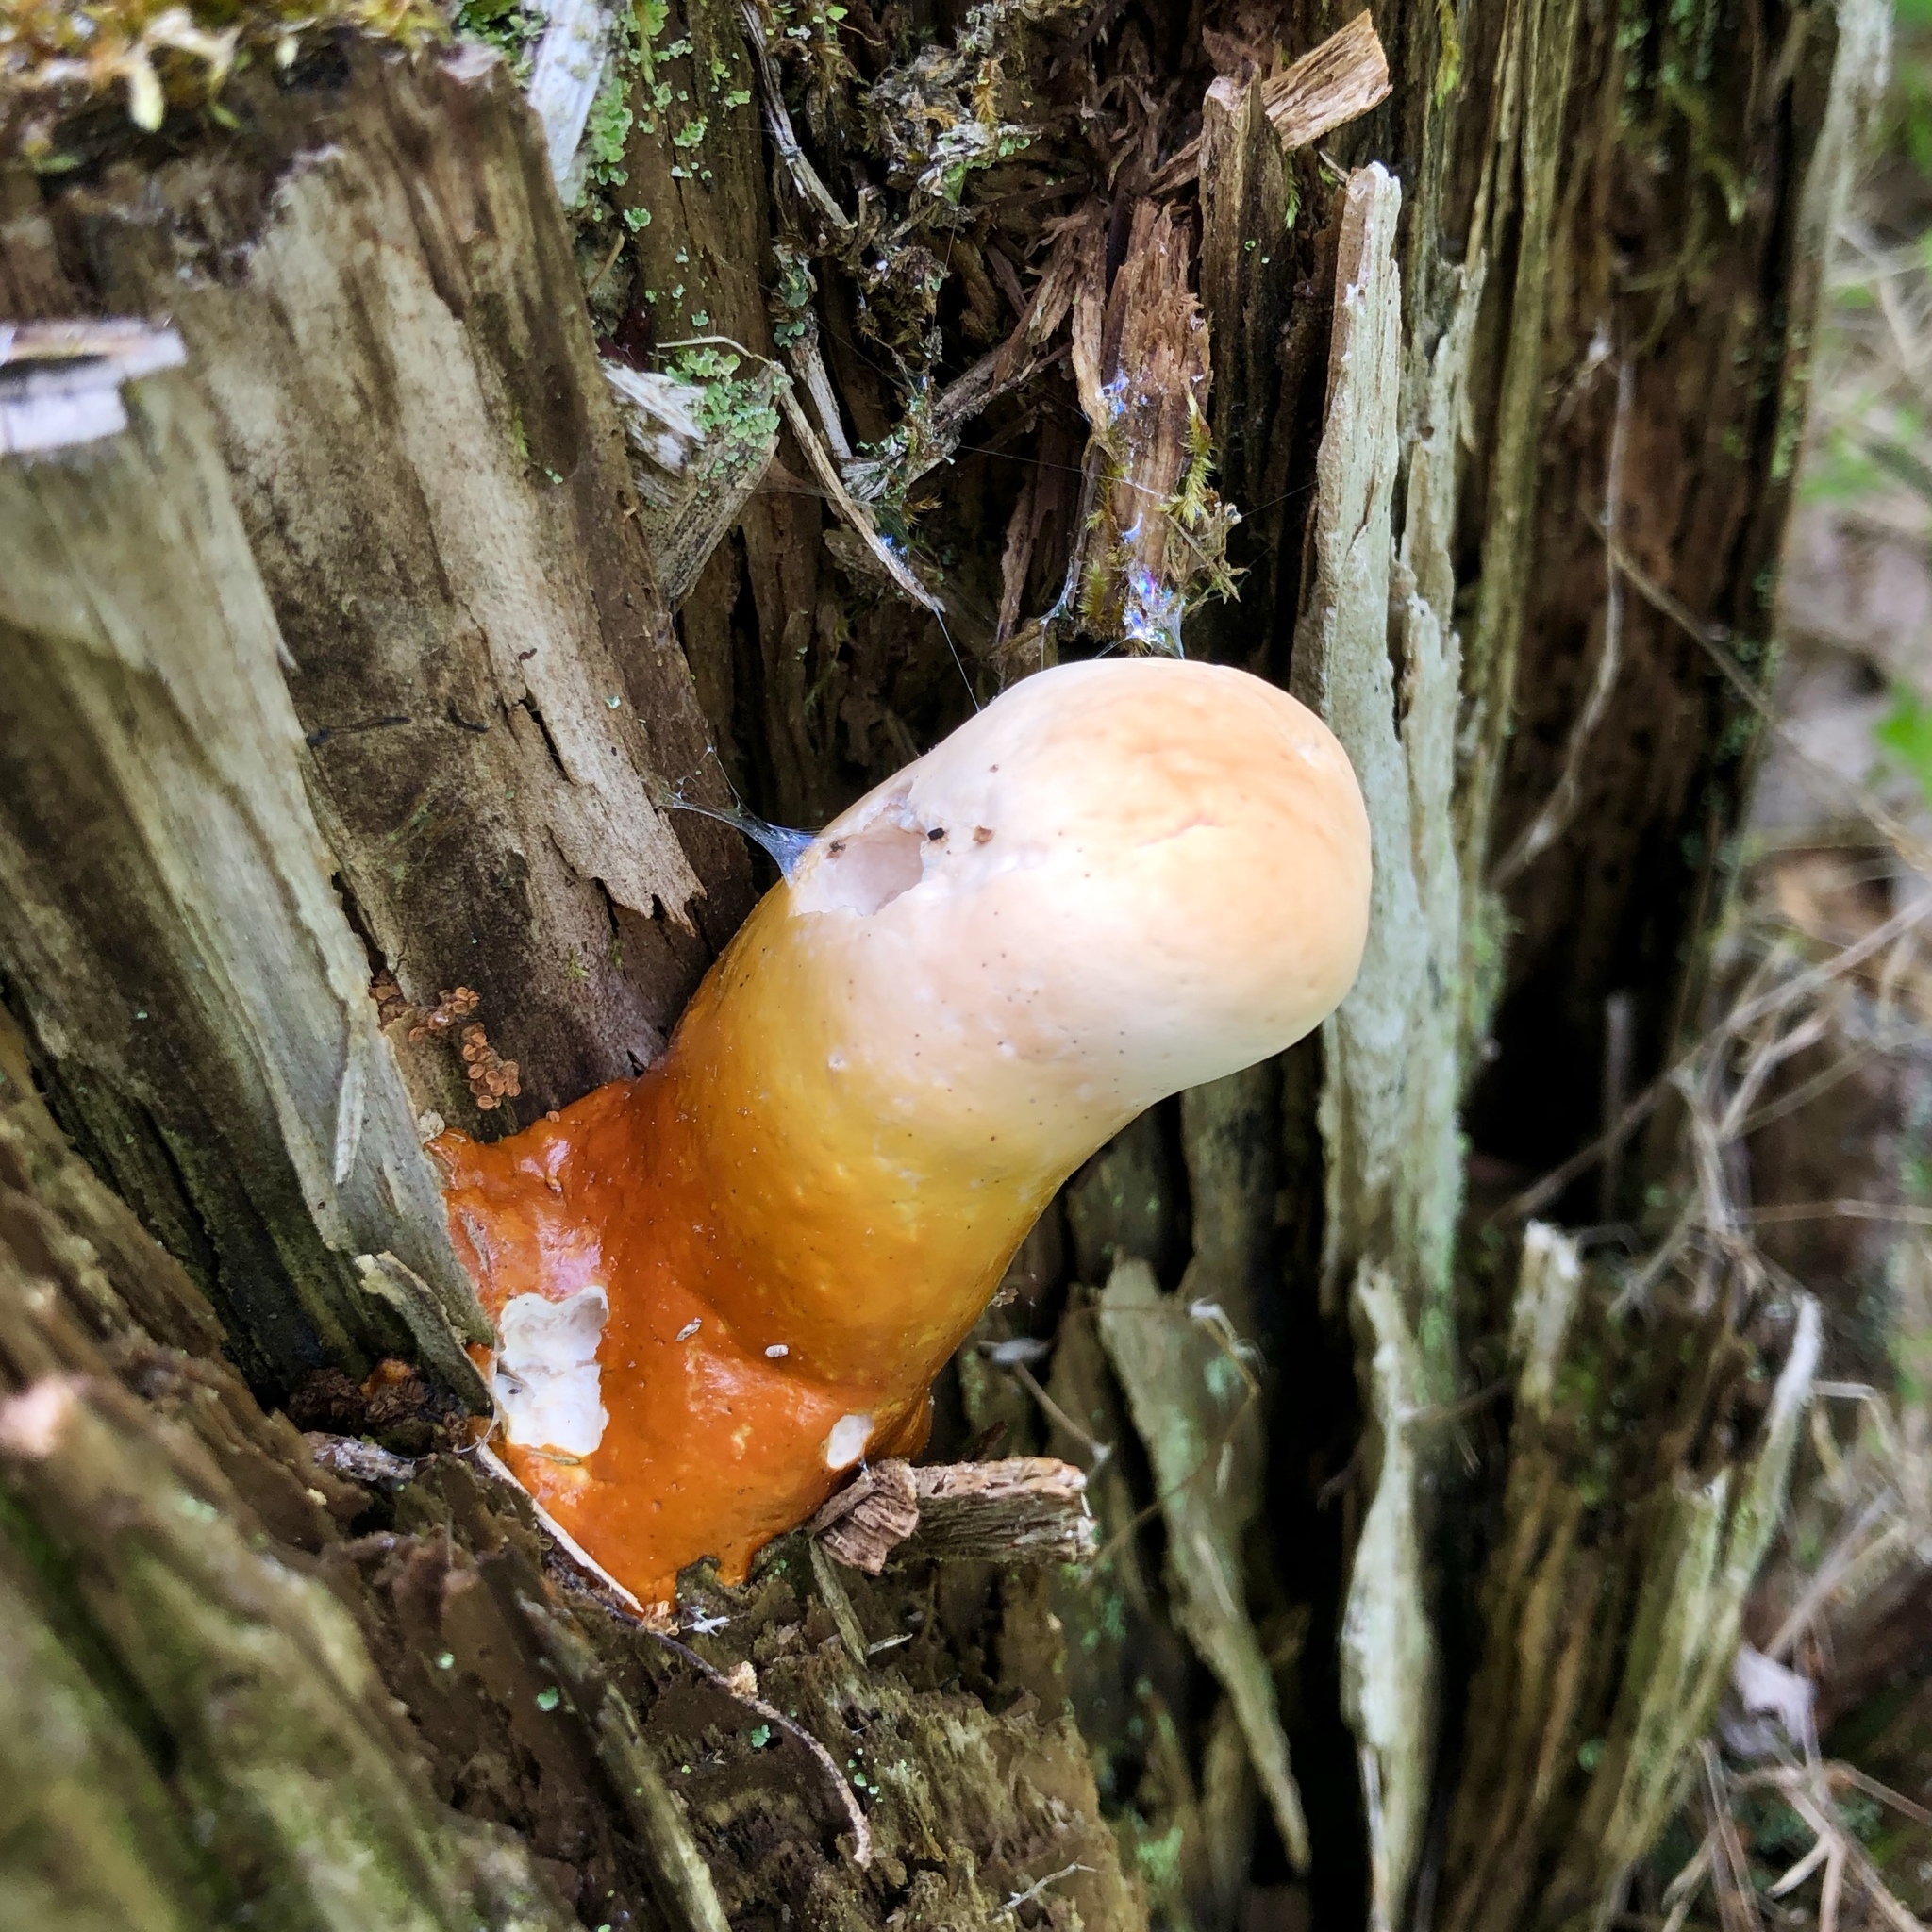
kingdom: Fungi
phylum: Basidiomycota
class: Agaricomycetes
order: Polyporales
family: Polyporaceae
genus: Ganoderma
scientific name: Ganoderma tsugae
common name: Hemlock varnish shelf
